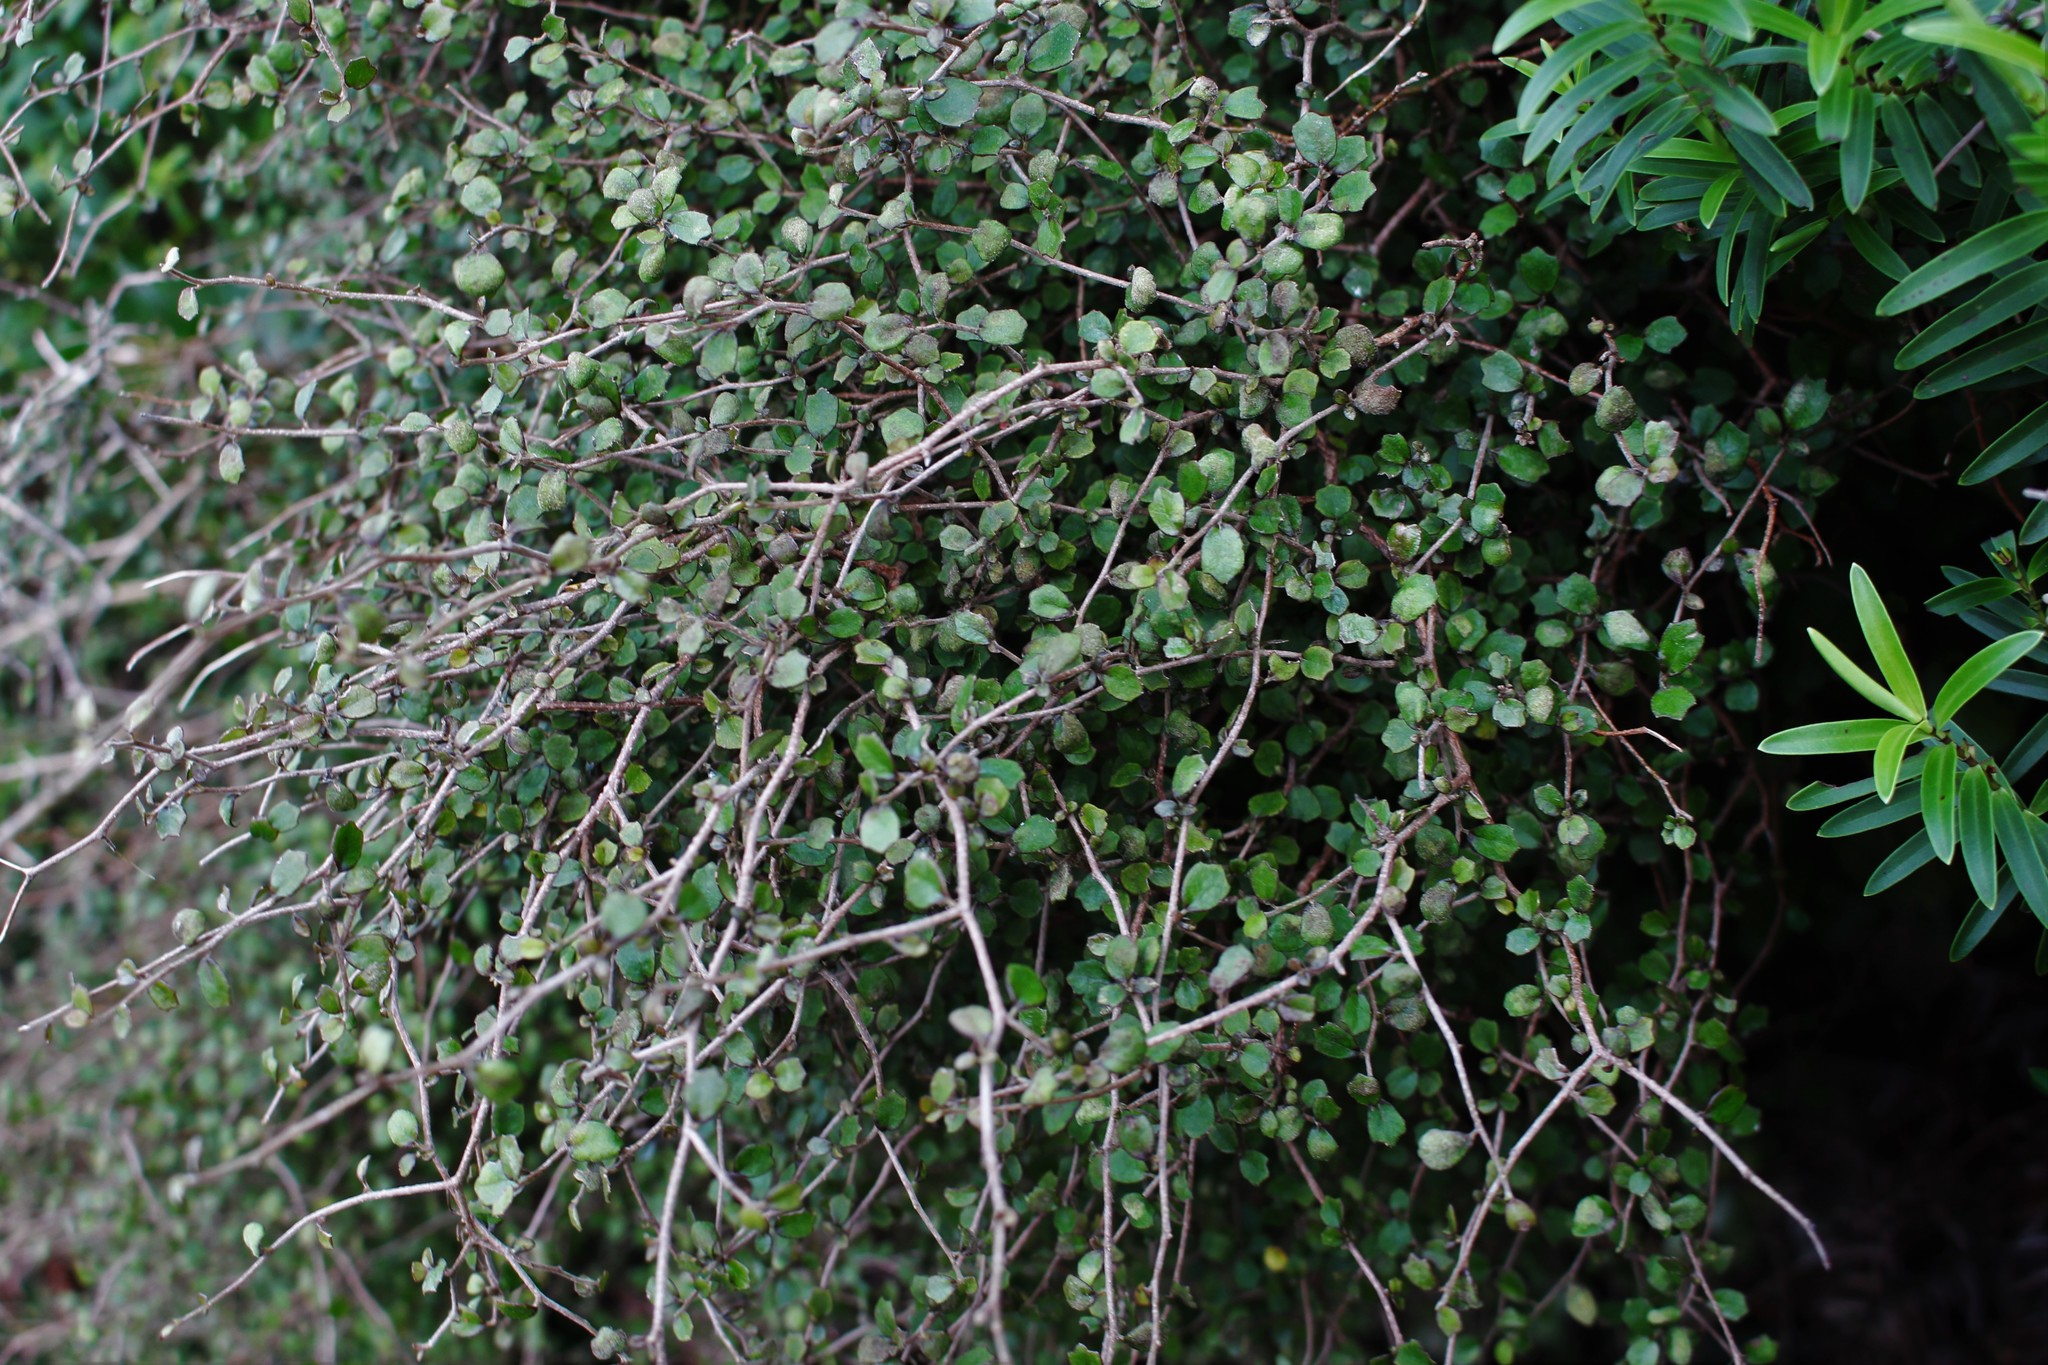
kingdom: Plantae
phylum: Tracheophyta
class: Magnoliopsida
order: Apiales
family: Pennantiaceae
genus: Pennantia
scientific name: Pennantia corymbosa
